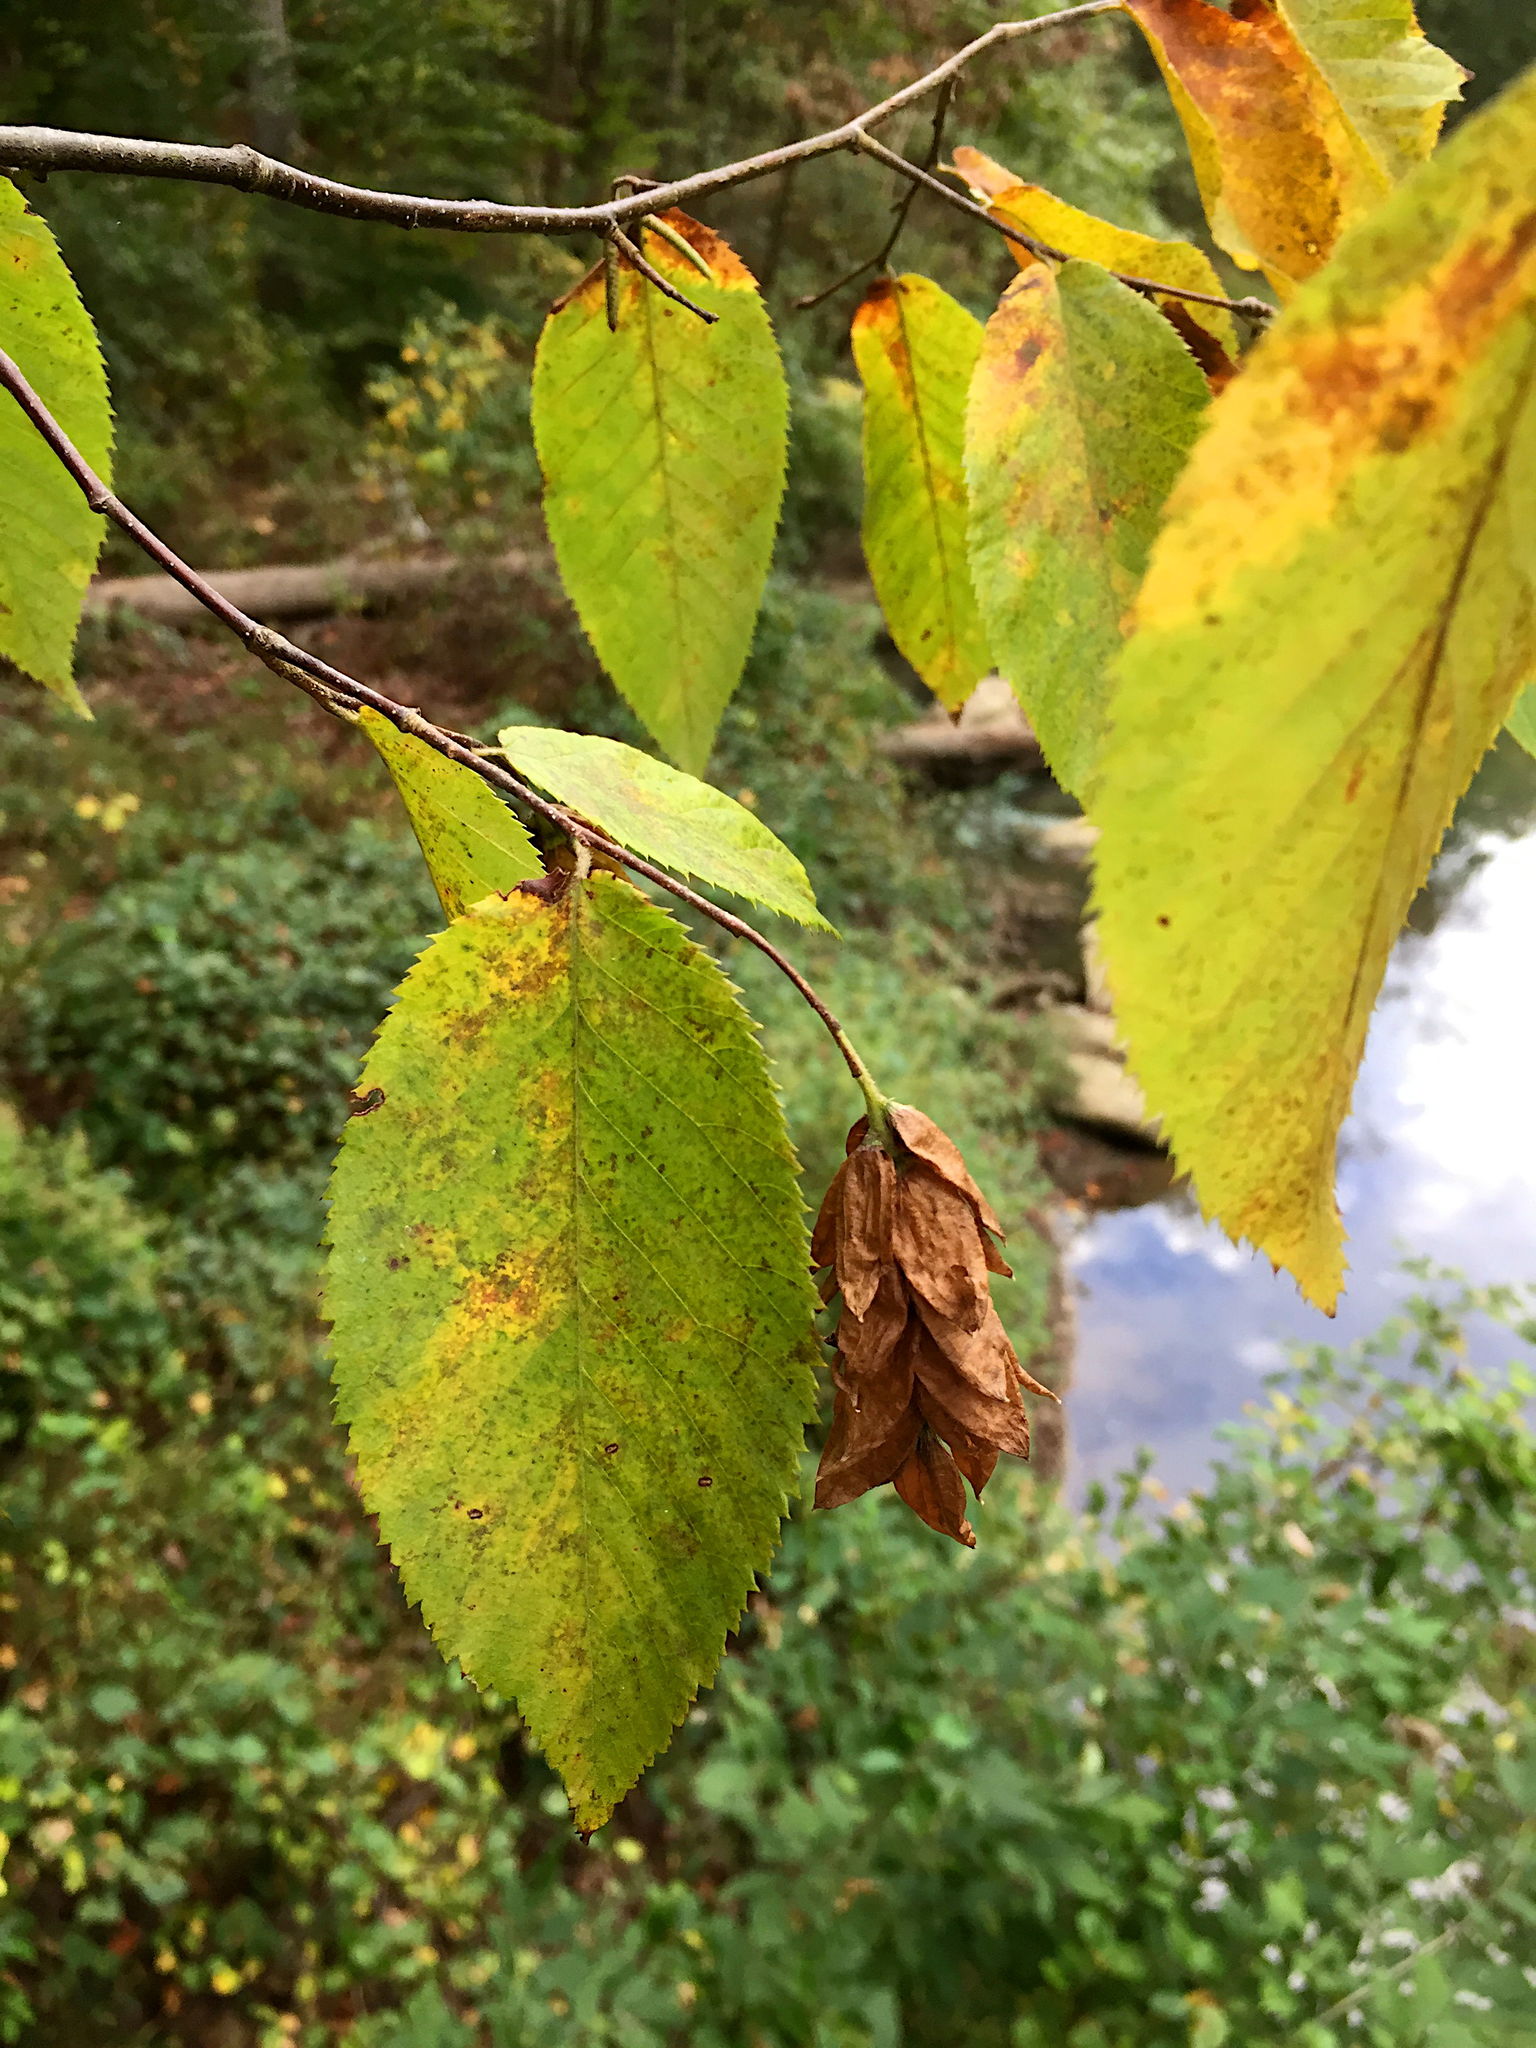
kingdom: Plantae
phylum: Tracheophyta
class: Magnoliopsida
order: Fagales
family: Betulaceae
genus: Ostrya
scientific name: Ostrya virginiana
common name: Ironwood
